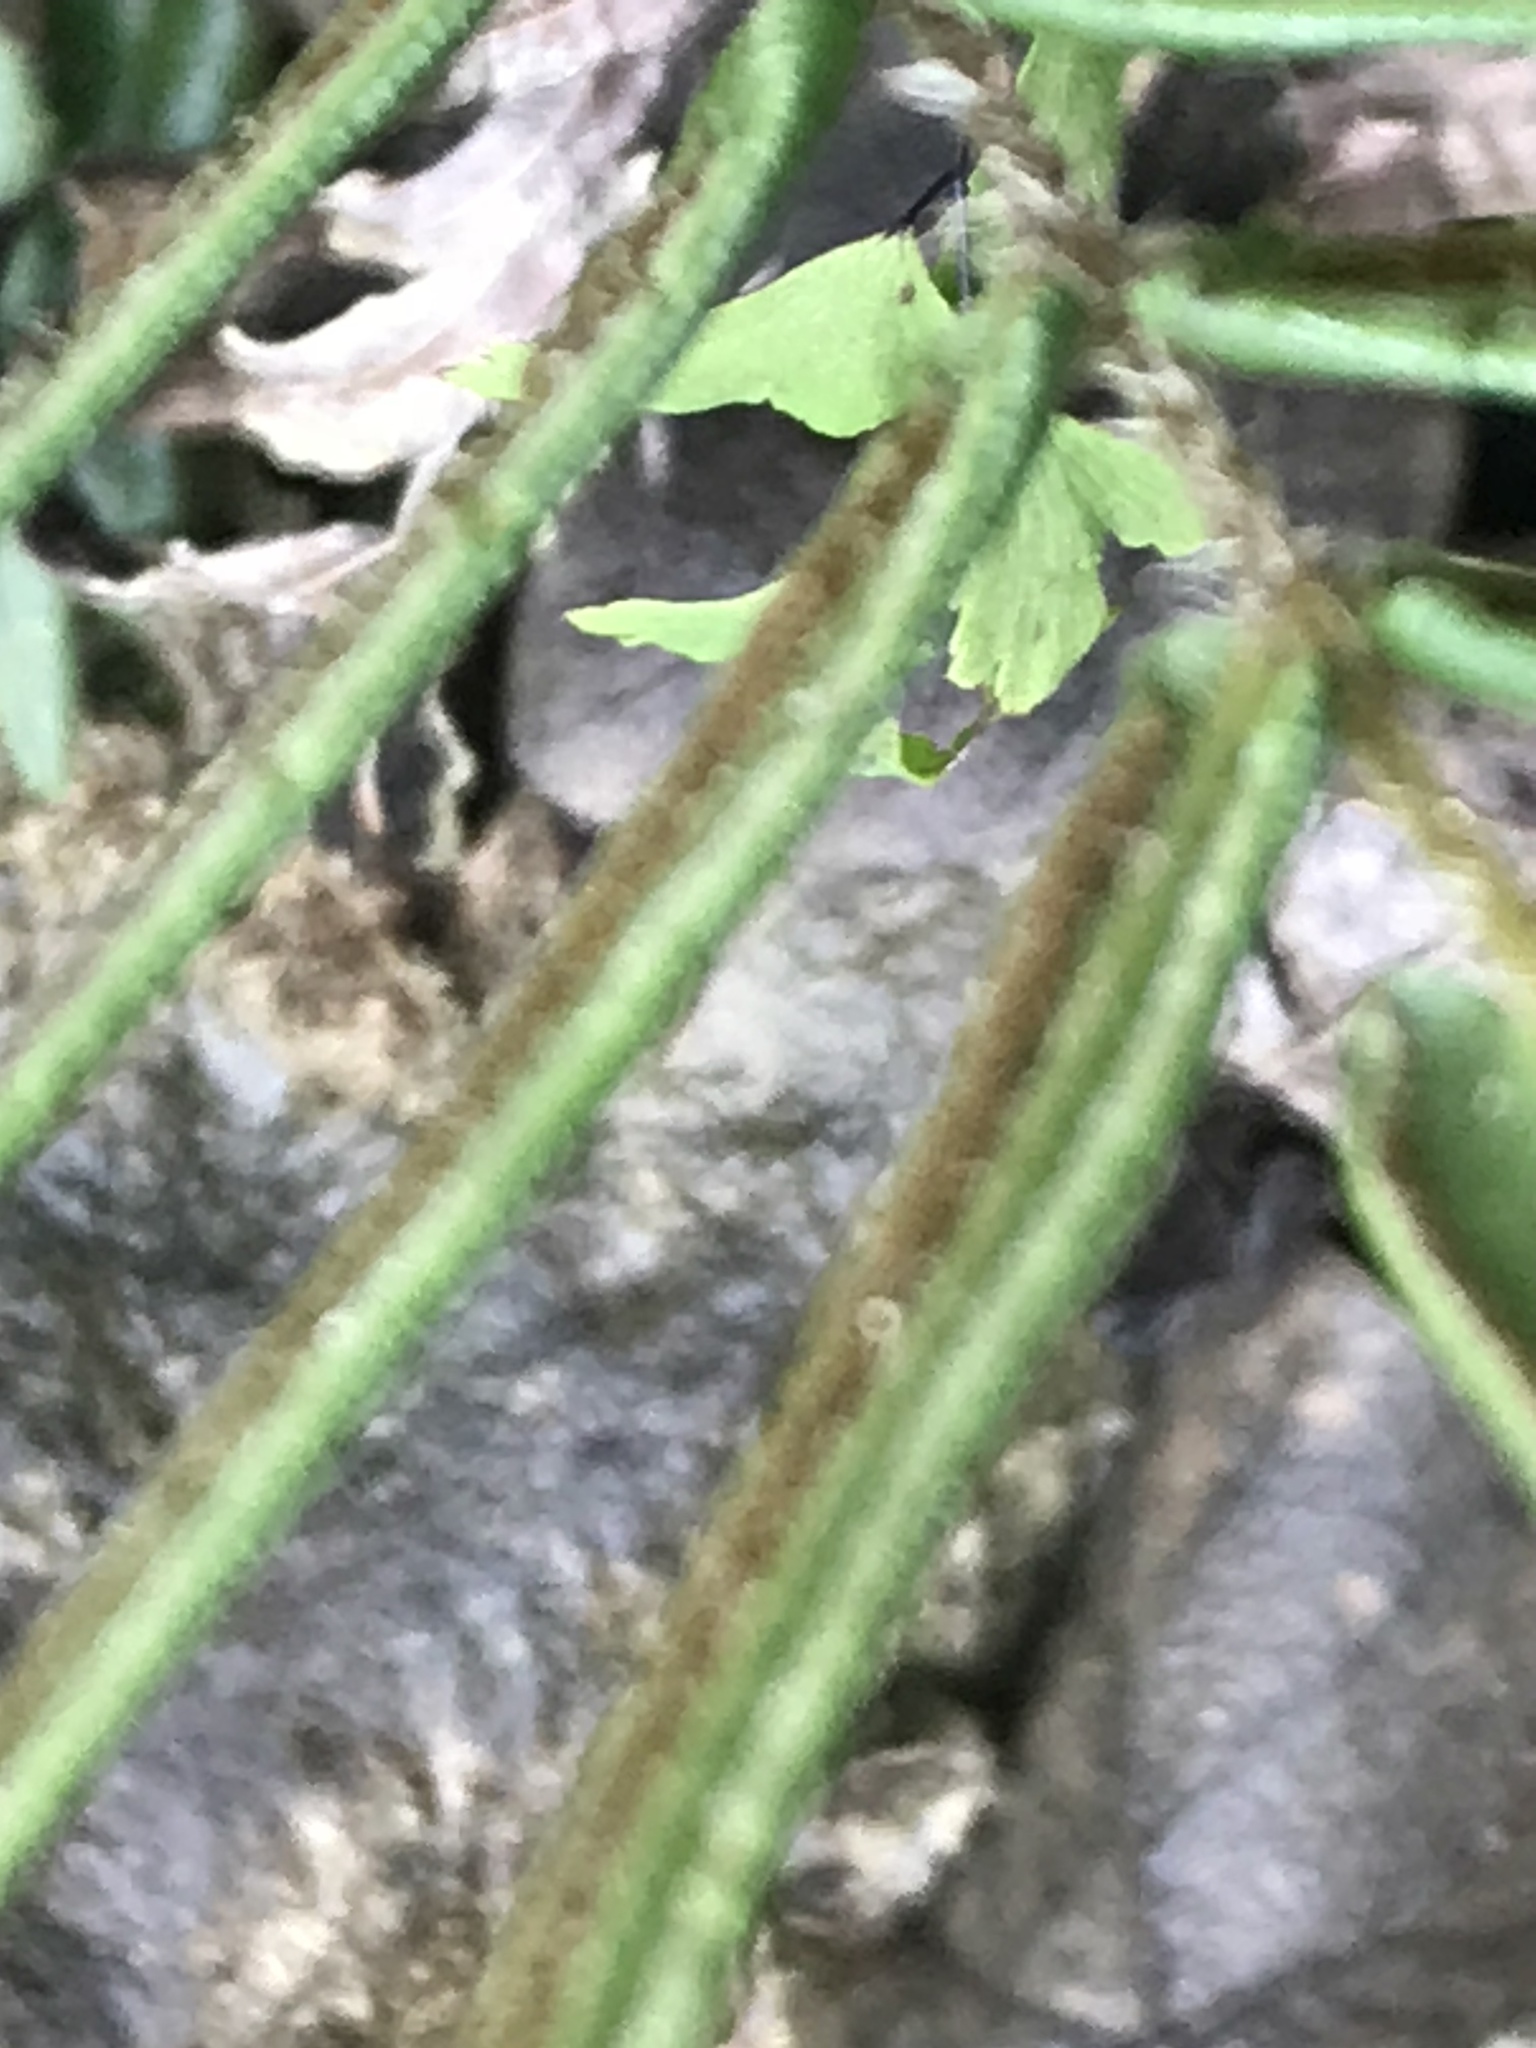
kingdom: Plantae
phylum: Tracheophyta
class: Polypodiopsida
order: Polypodiales
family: Pteridaceae
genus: Pteris
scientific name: Pteris vittata
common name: Ladder brake
